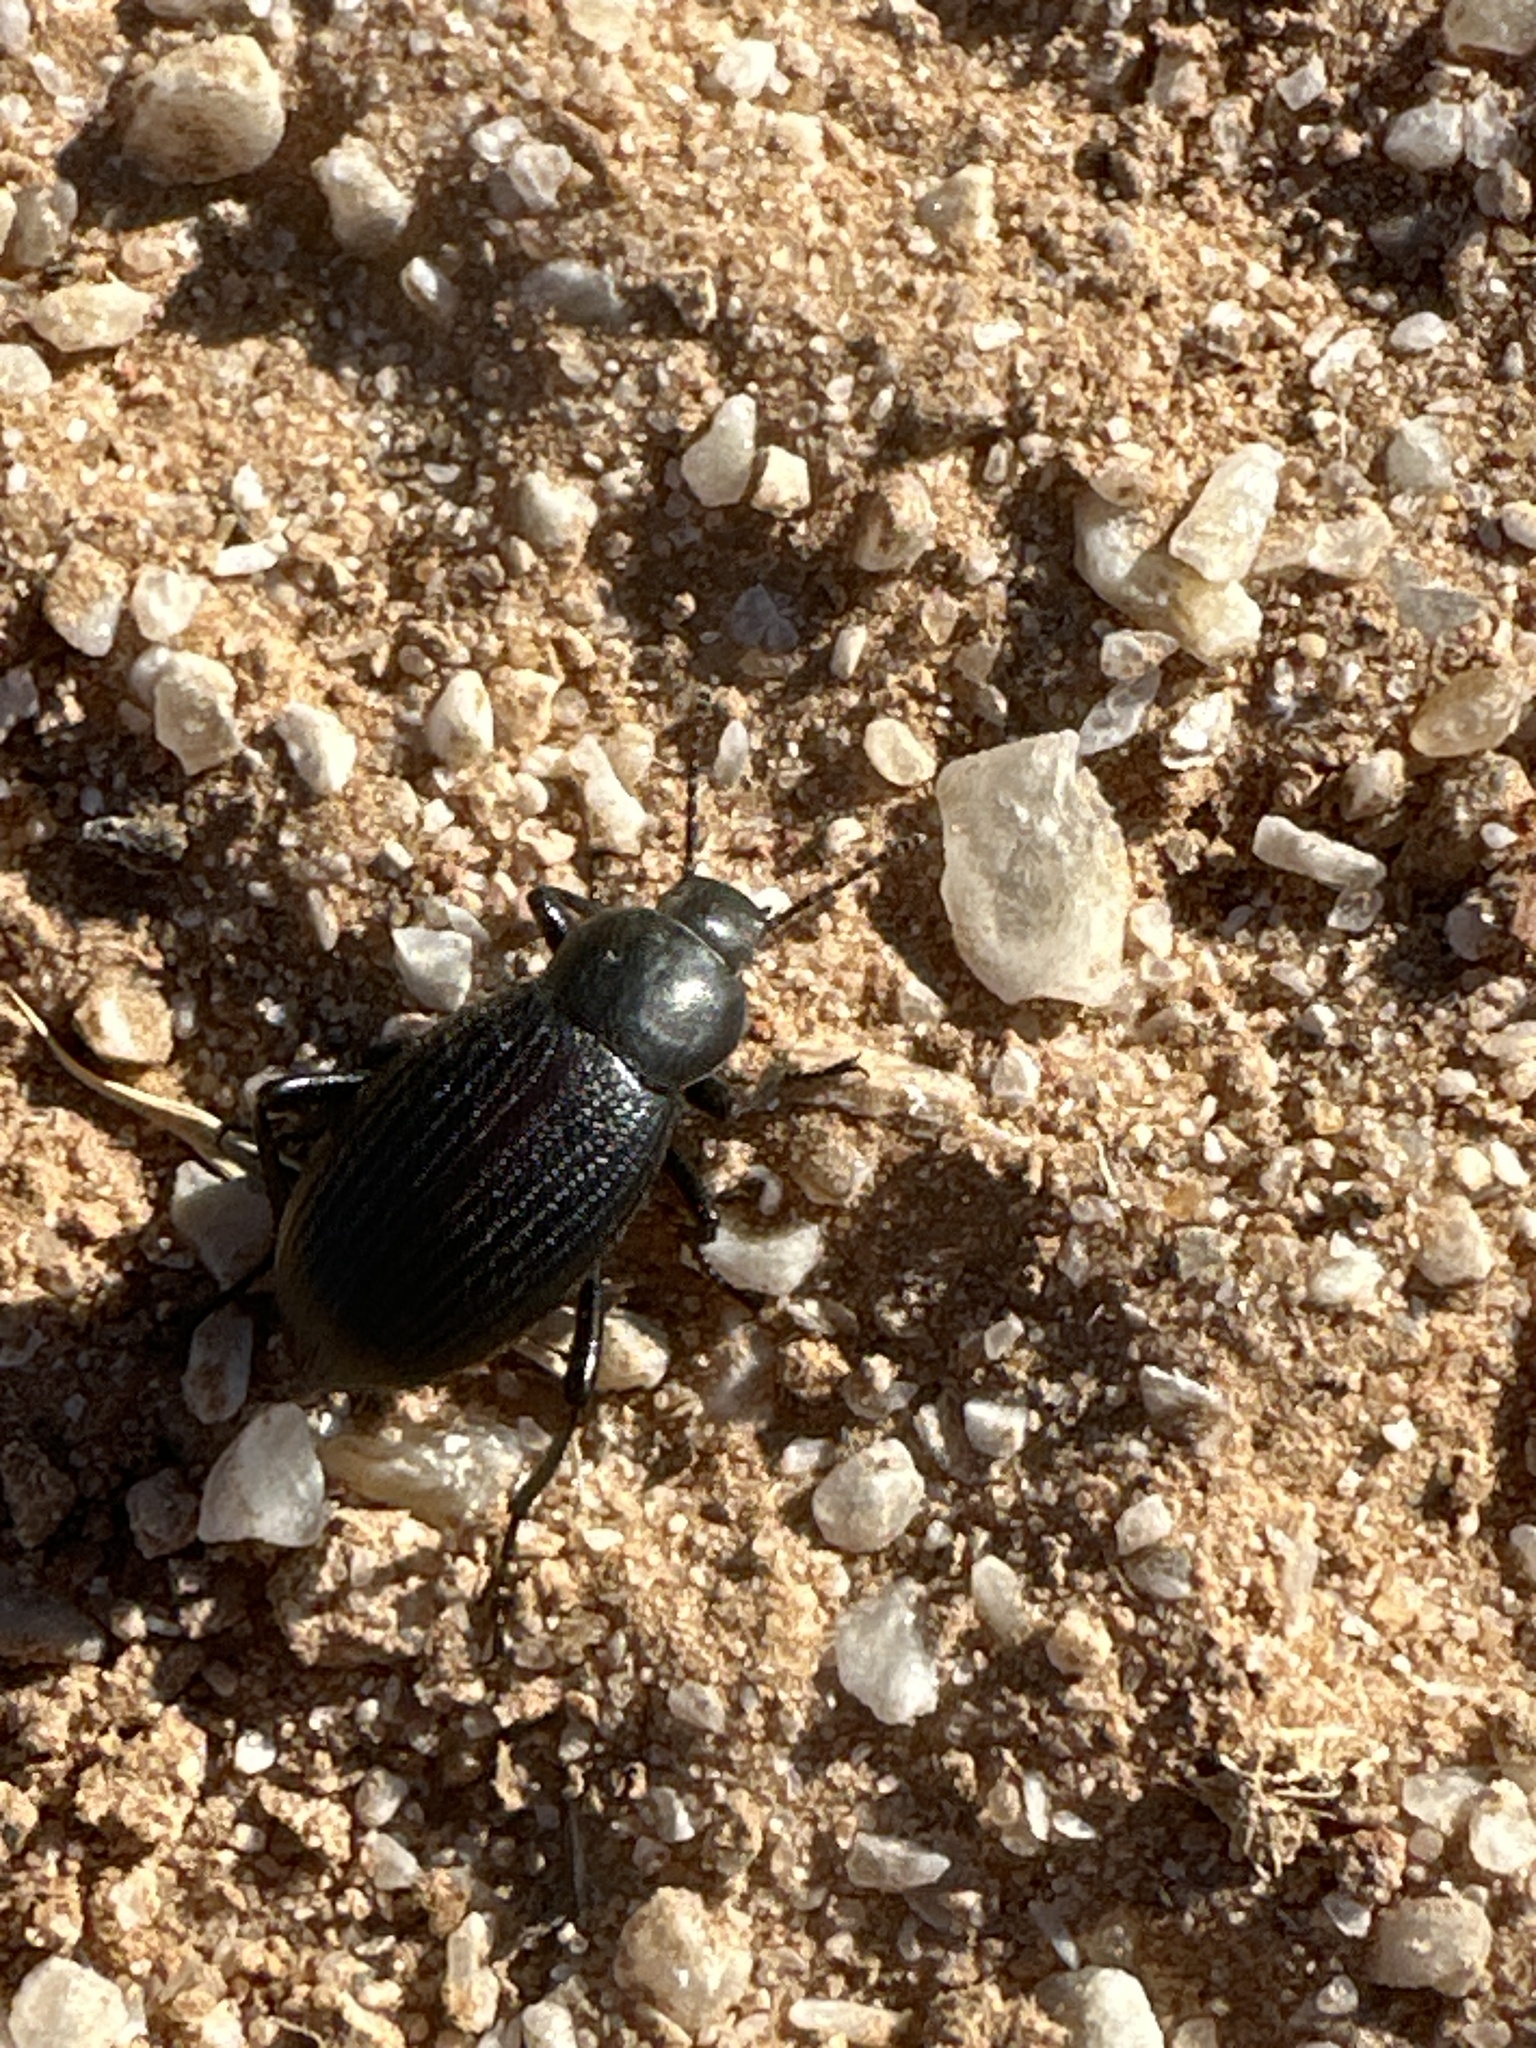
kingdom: Animalia
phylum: Arthropoda
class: Insecta
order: Coleoptera
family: Tenebrionidae
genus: Eleodes
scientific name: Eleodes carbonaria
